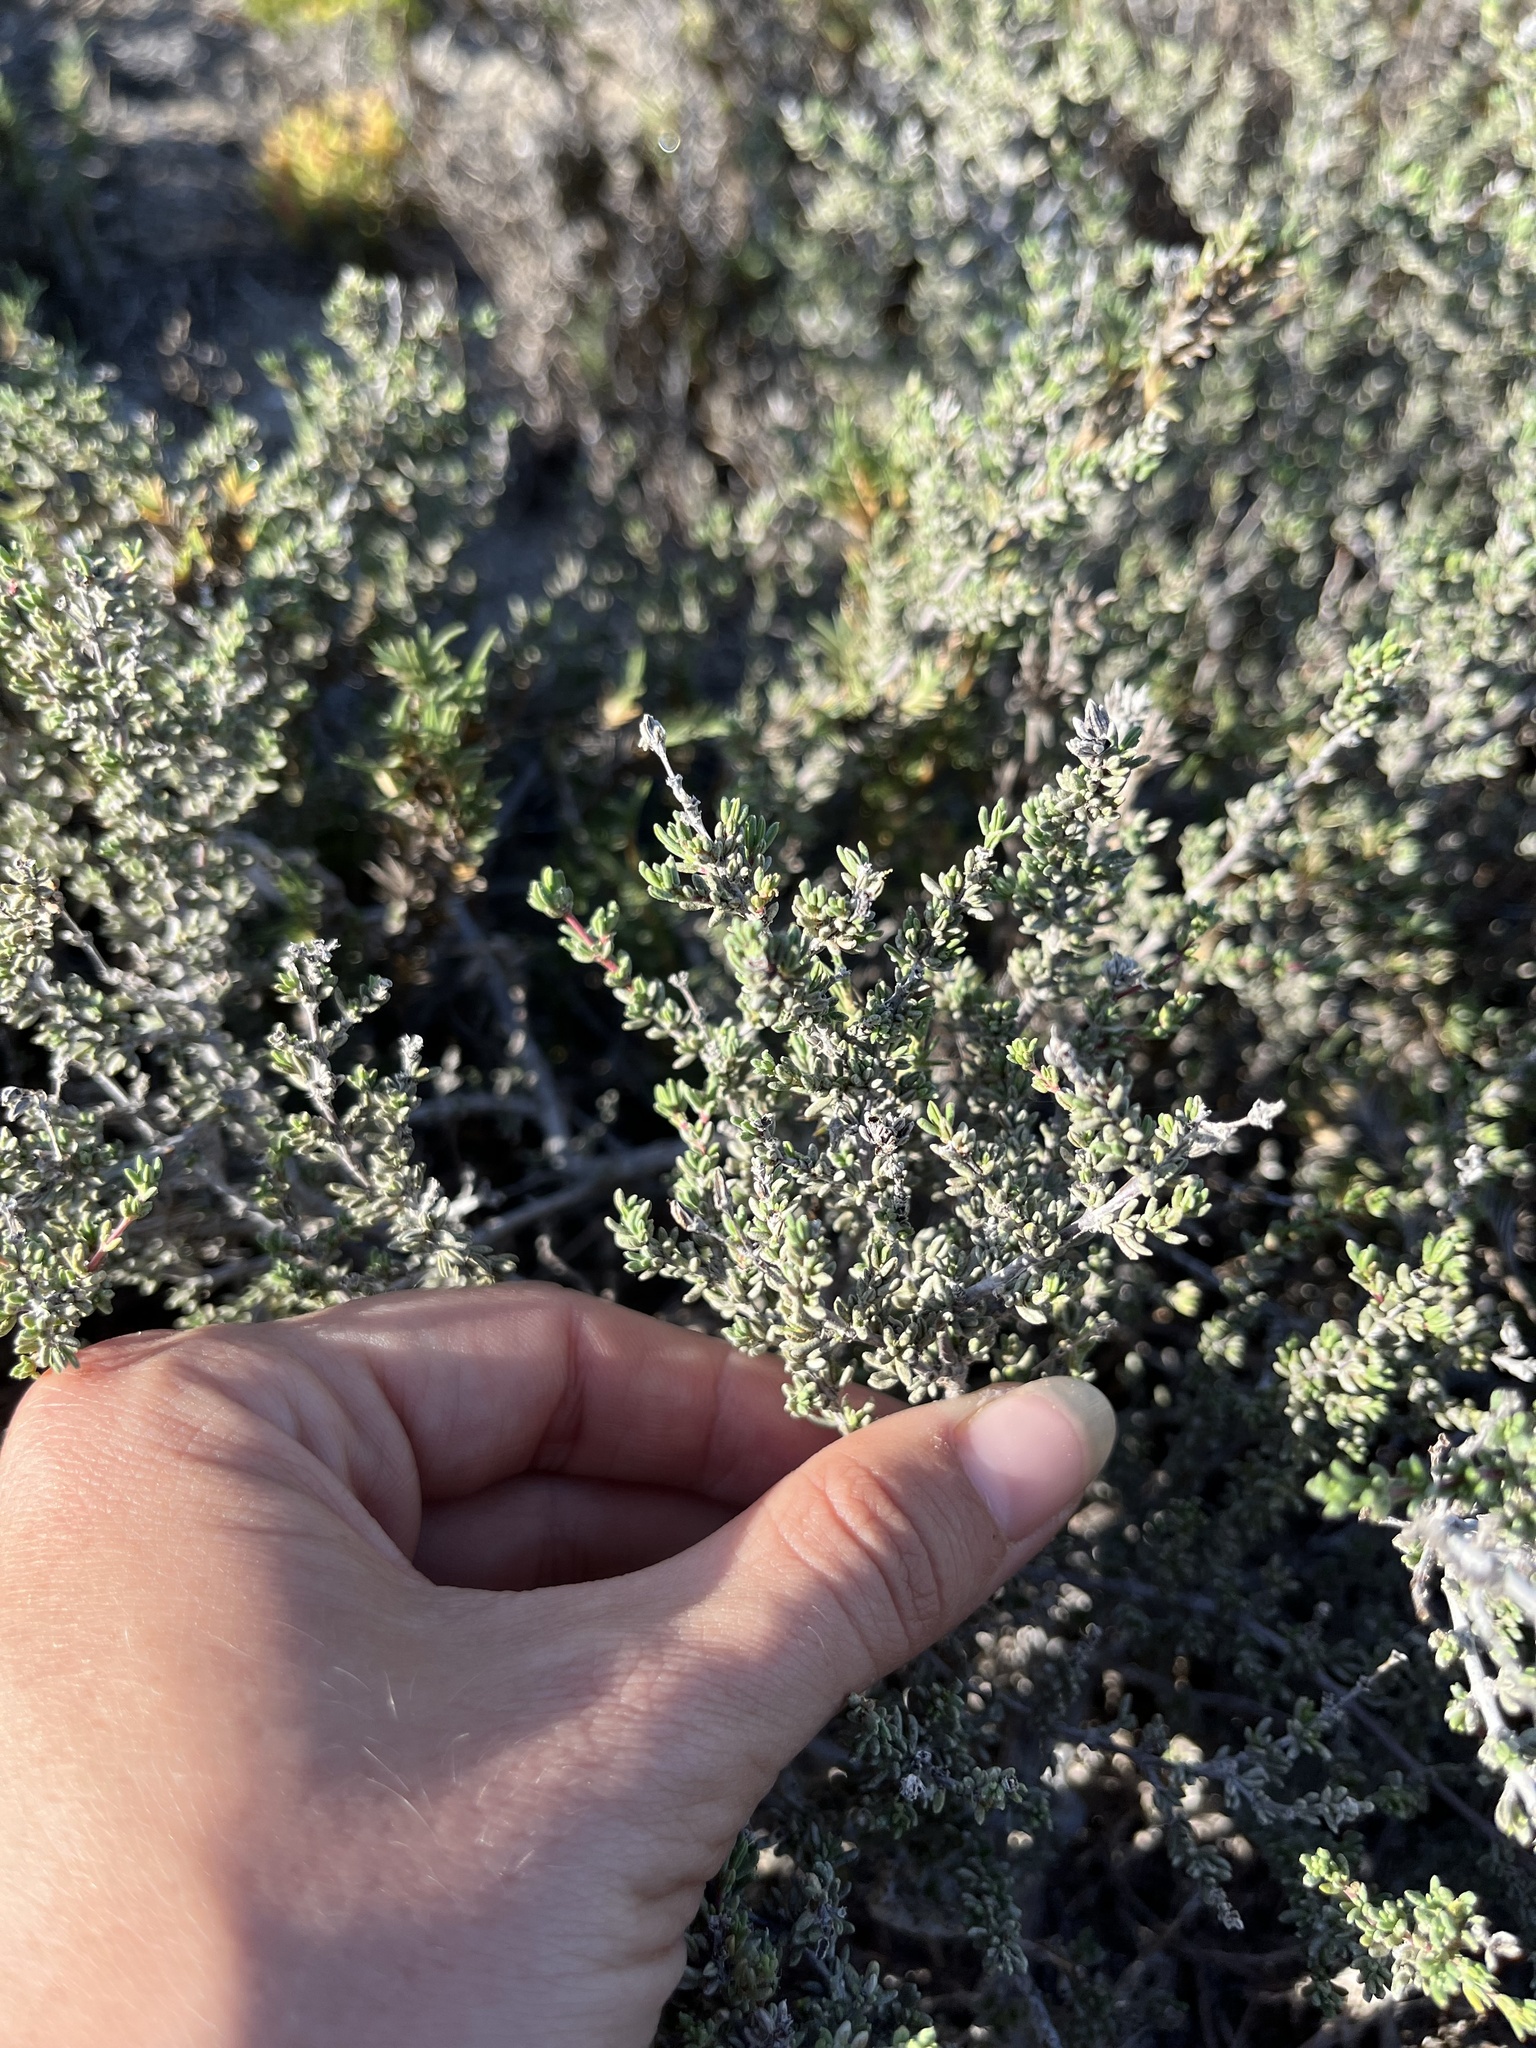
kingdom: Plantae
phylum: Tracheophyta
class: Magnoliopsida
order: Caryophyllales
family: Frankeniaceae
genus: Frankenia
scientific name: Frankenia palmeri
